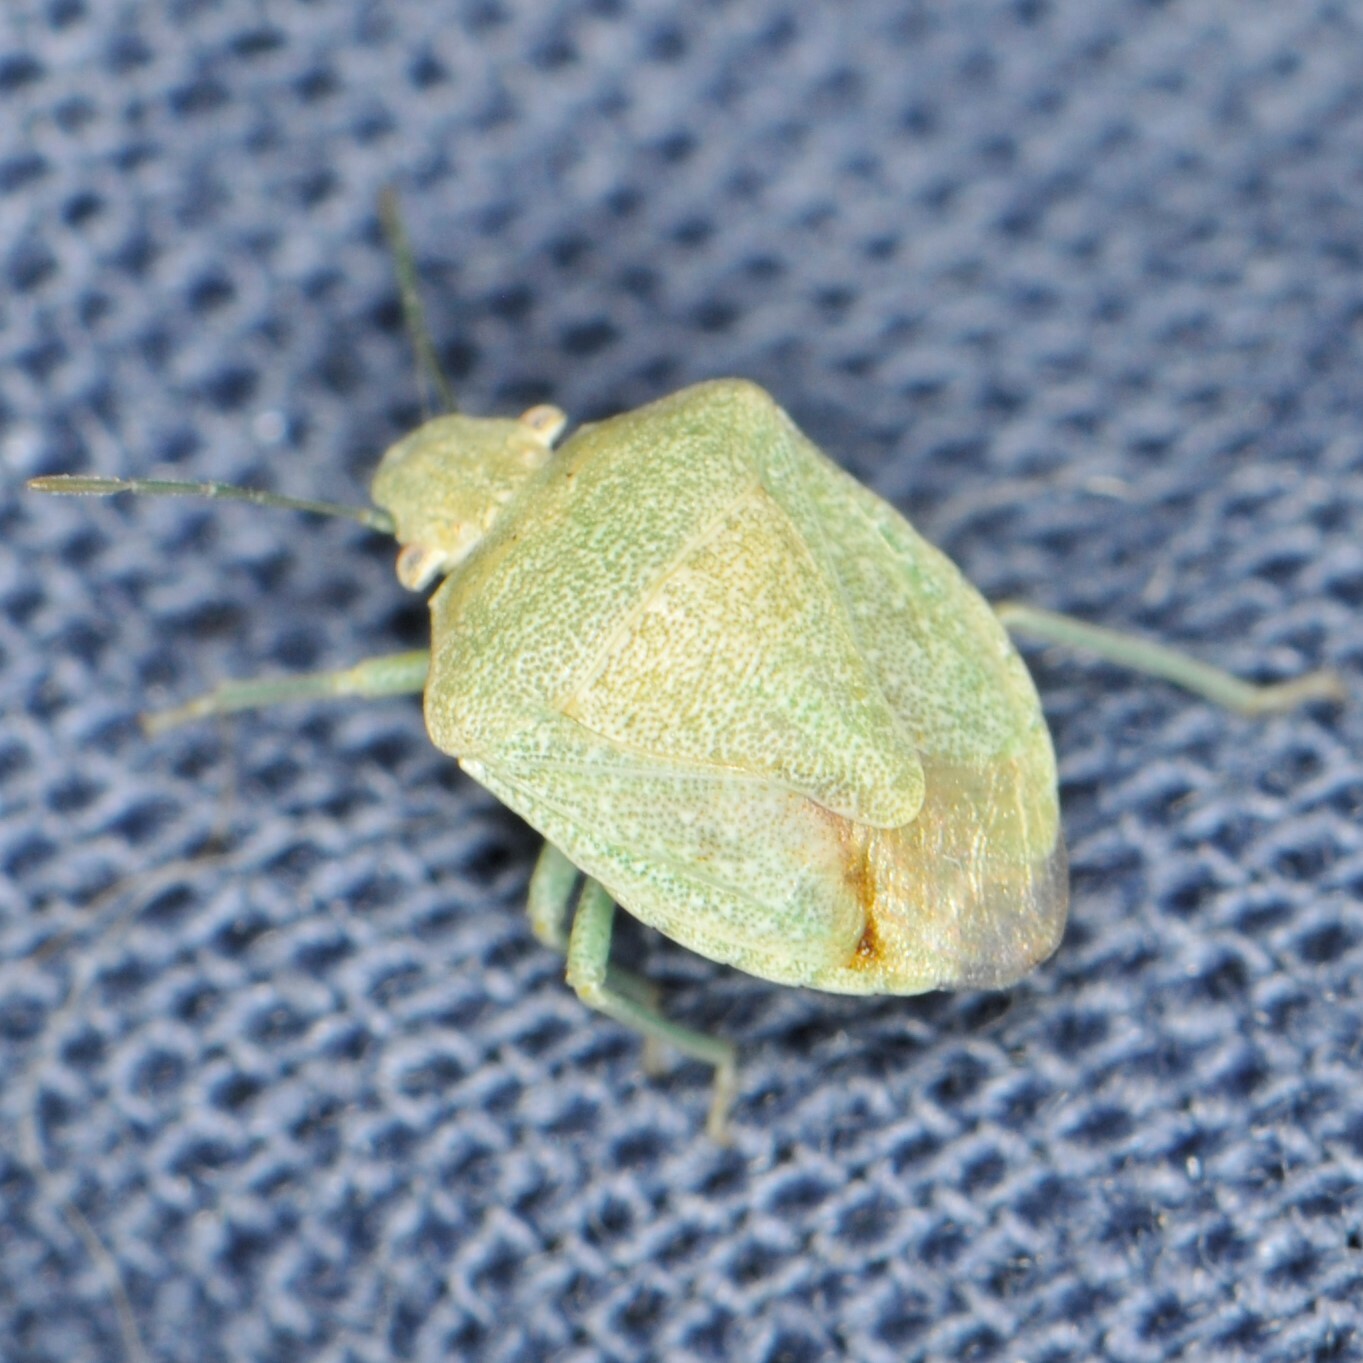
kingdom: Animalia
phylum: Arthropoda
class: Insecta
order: Hemiptera
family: Pentatomidae
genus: Tepa
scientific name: Tepa
